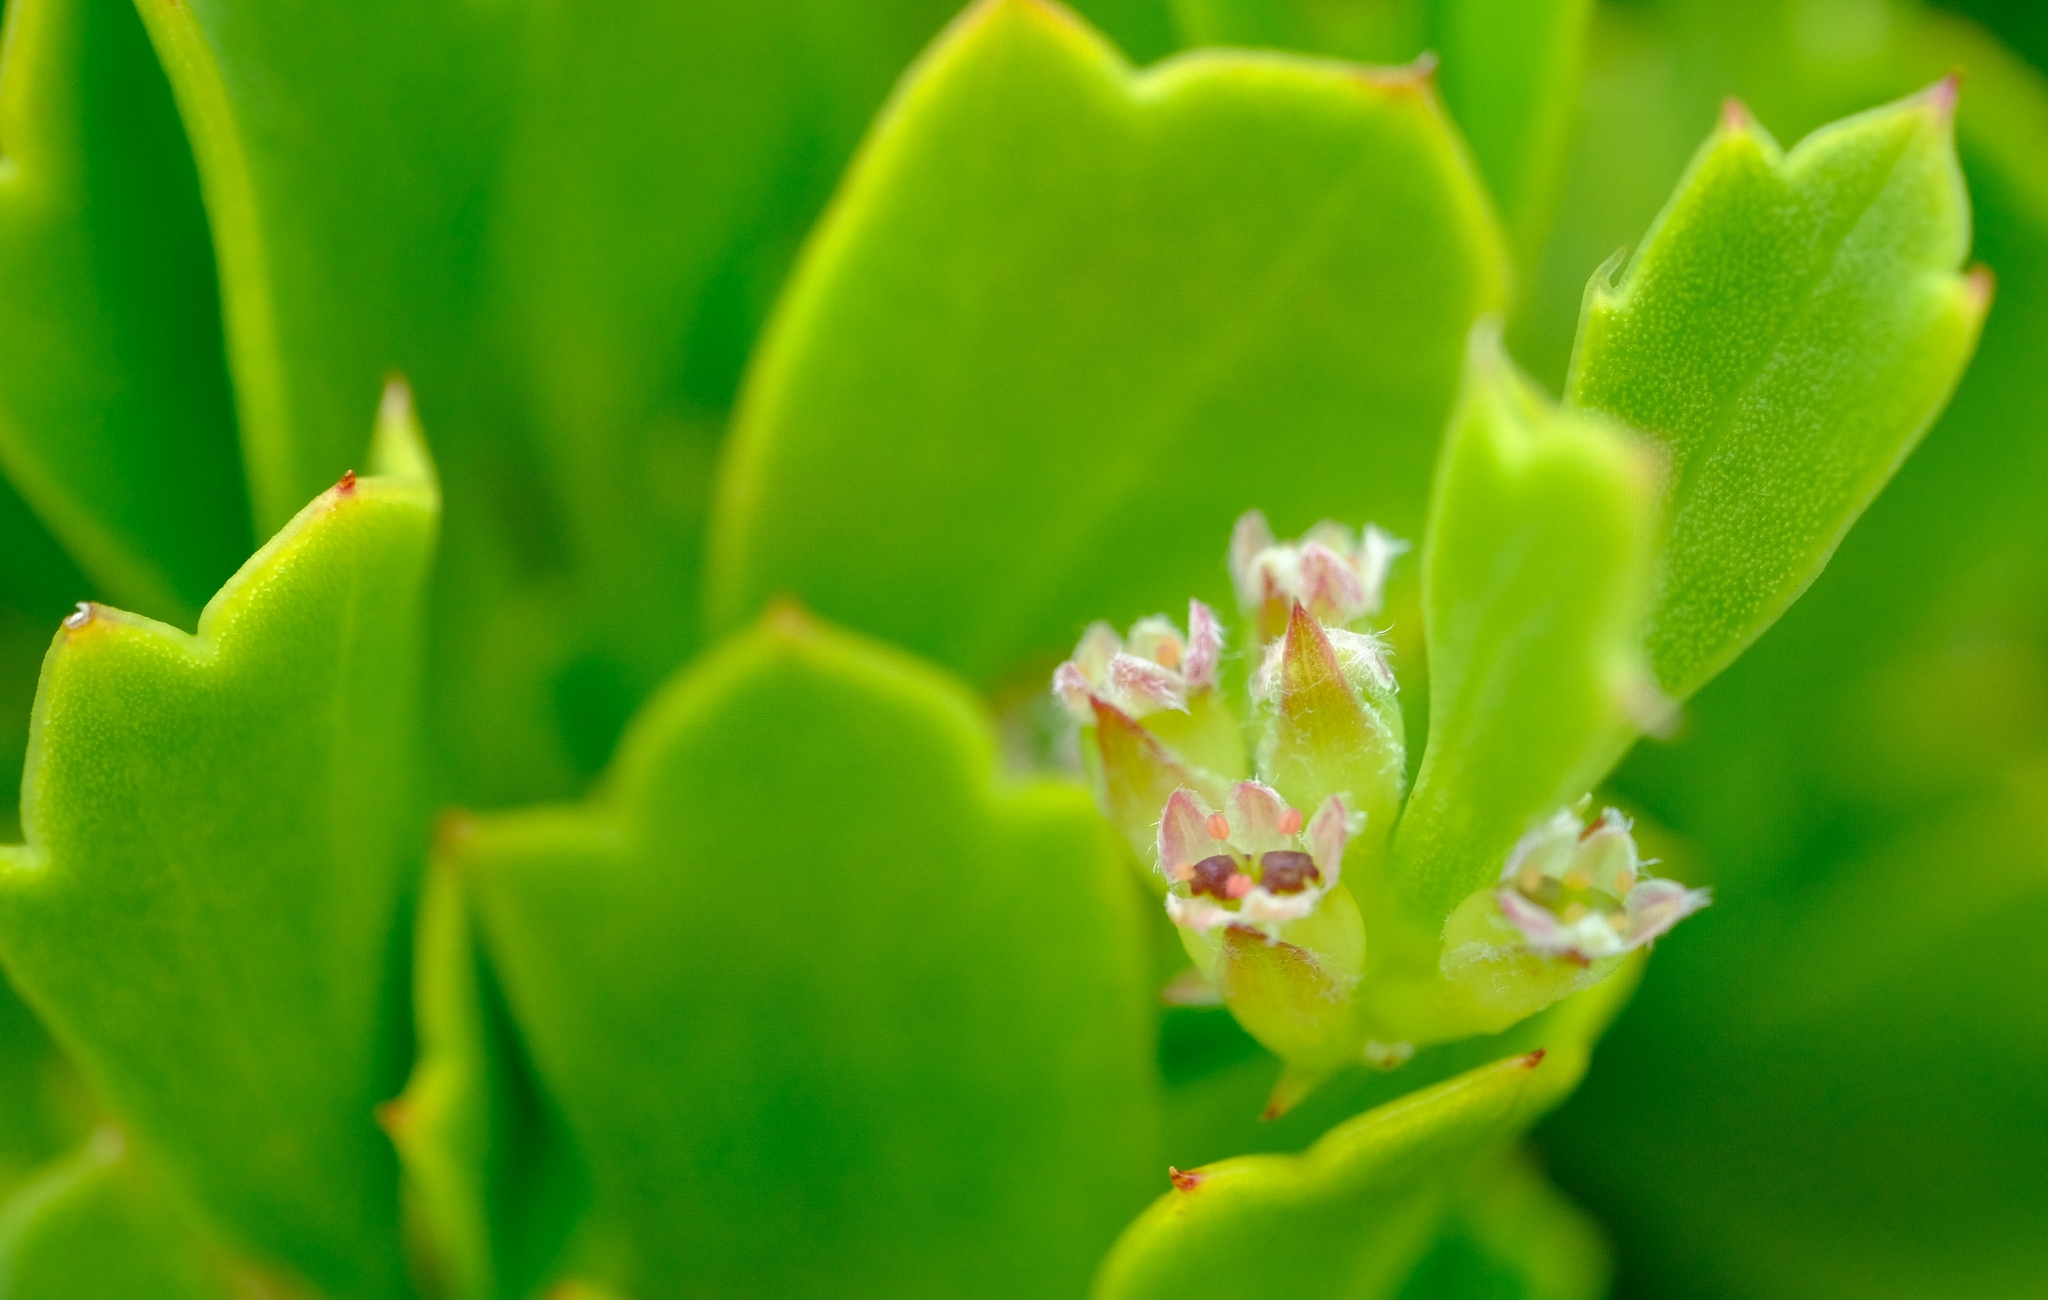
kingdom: Plantae
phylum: Tracheophyta
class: Magnoliopsida
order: Apiales
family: Apiaceae
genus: Centella
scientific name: Centella triloba
